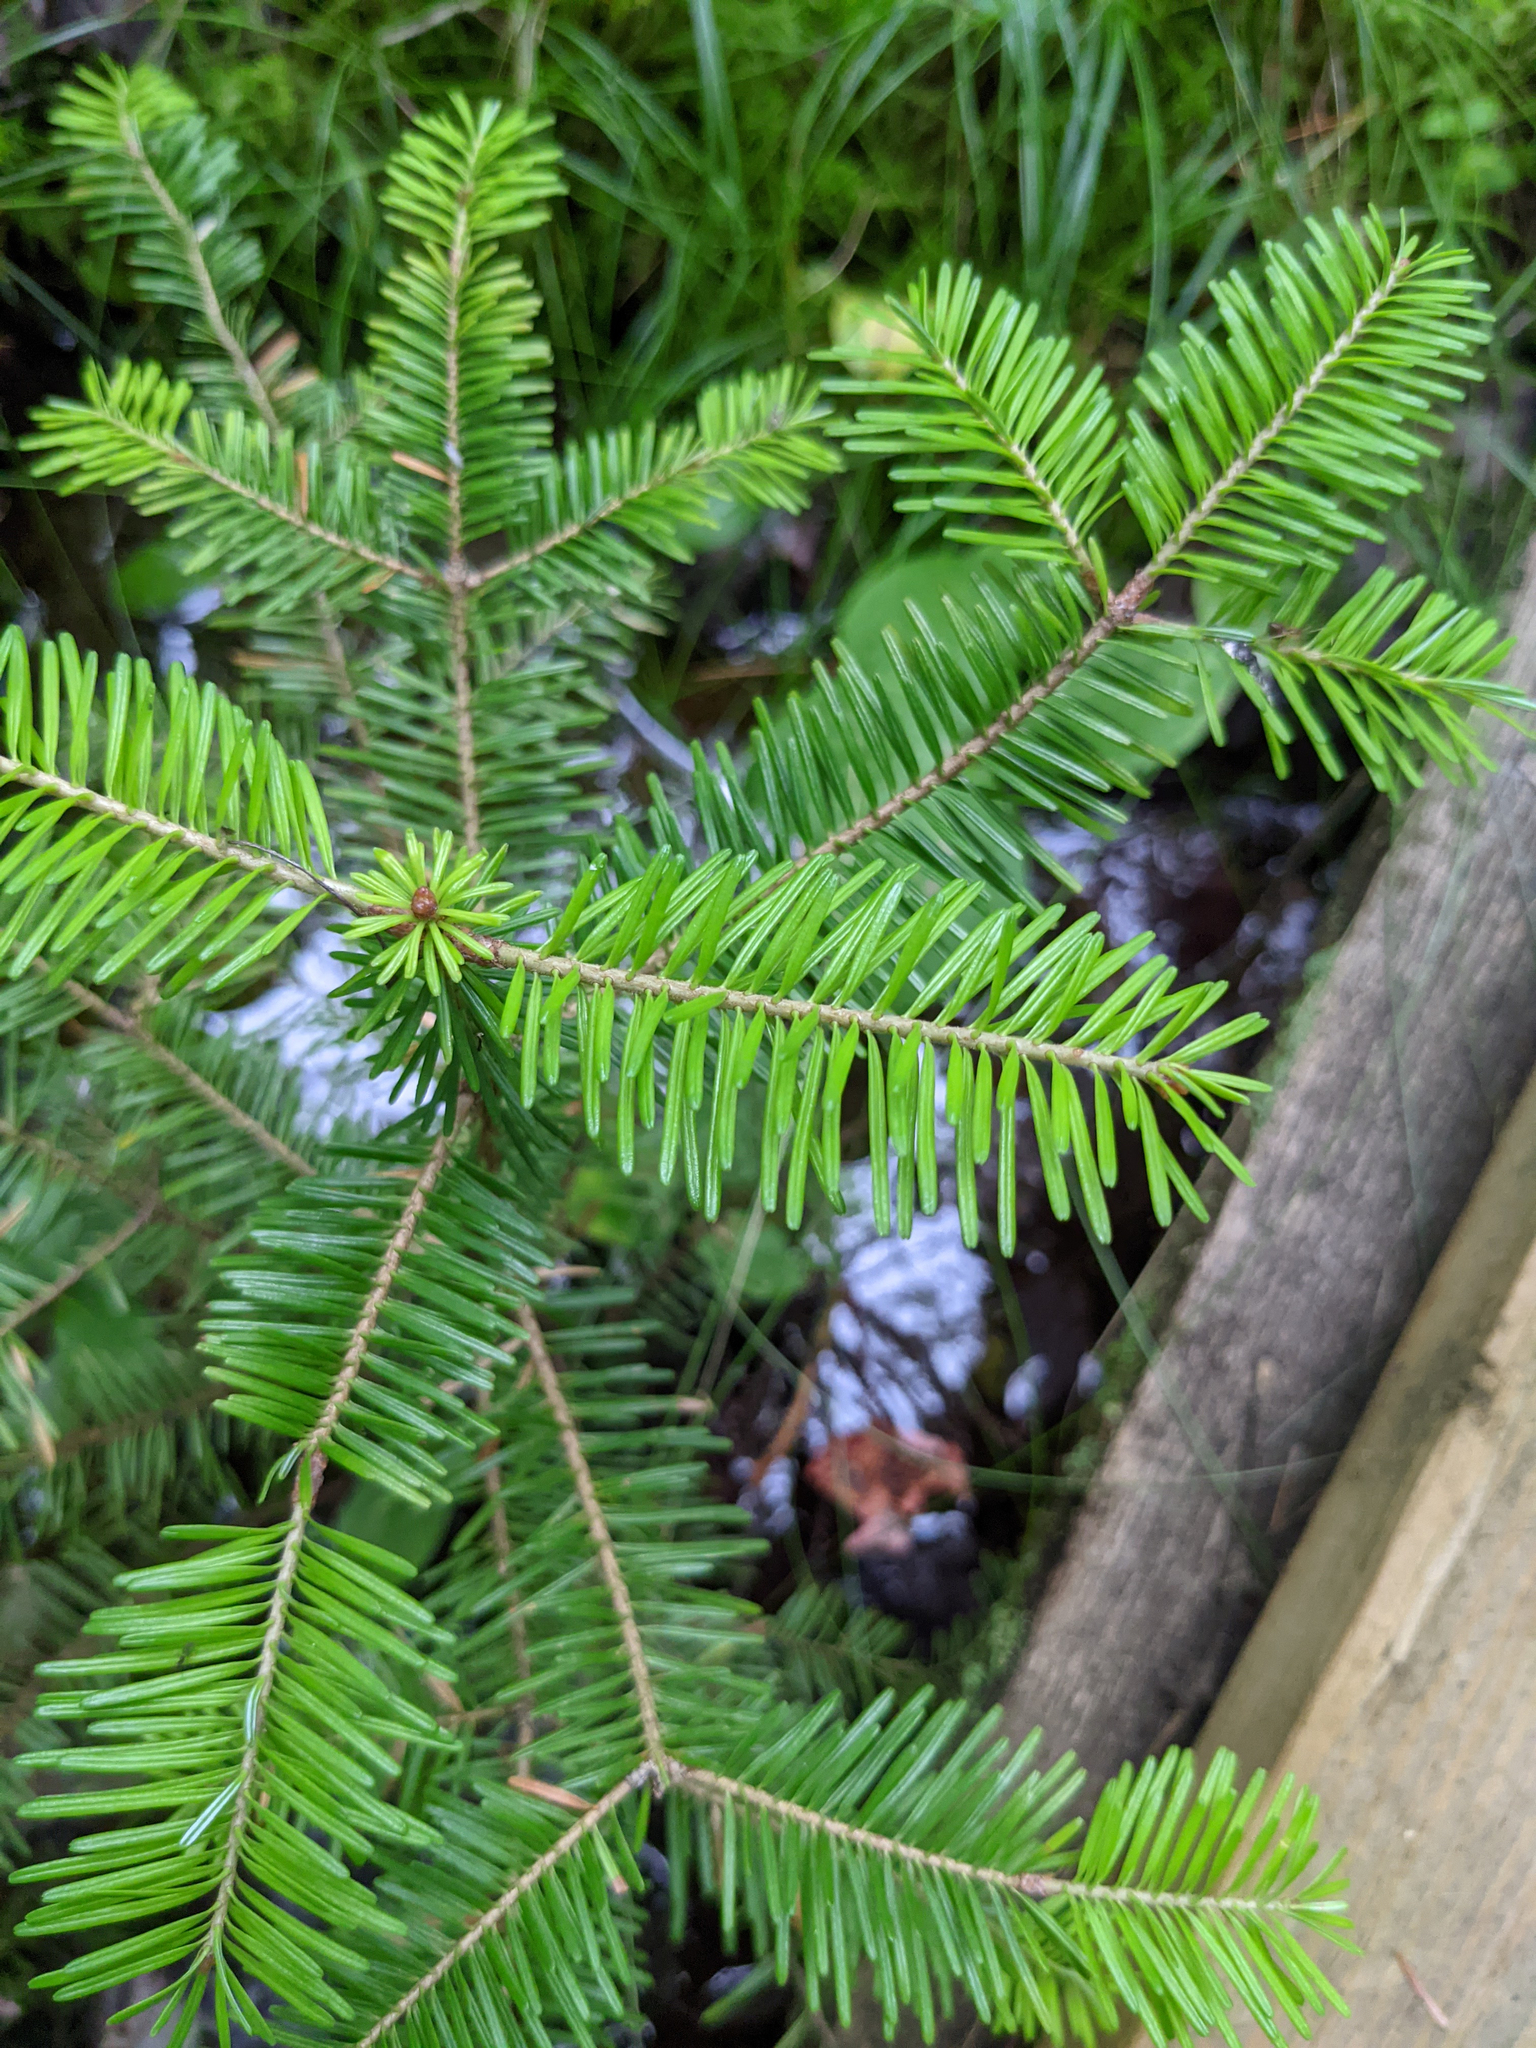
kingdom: Plantae
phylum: Tracheophyta
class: Pinopsida
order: Pinales
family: Pinaceae
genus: Abies
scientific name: Abies balsamea
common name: Balsam fir
